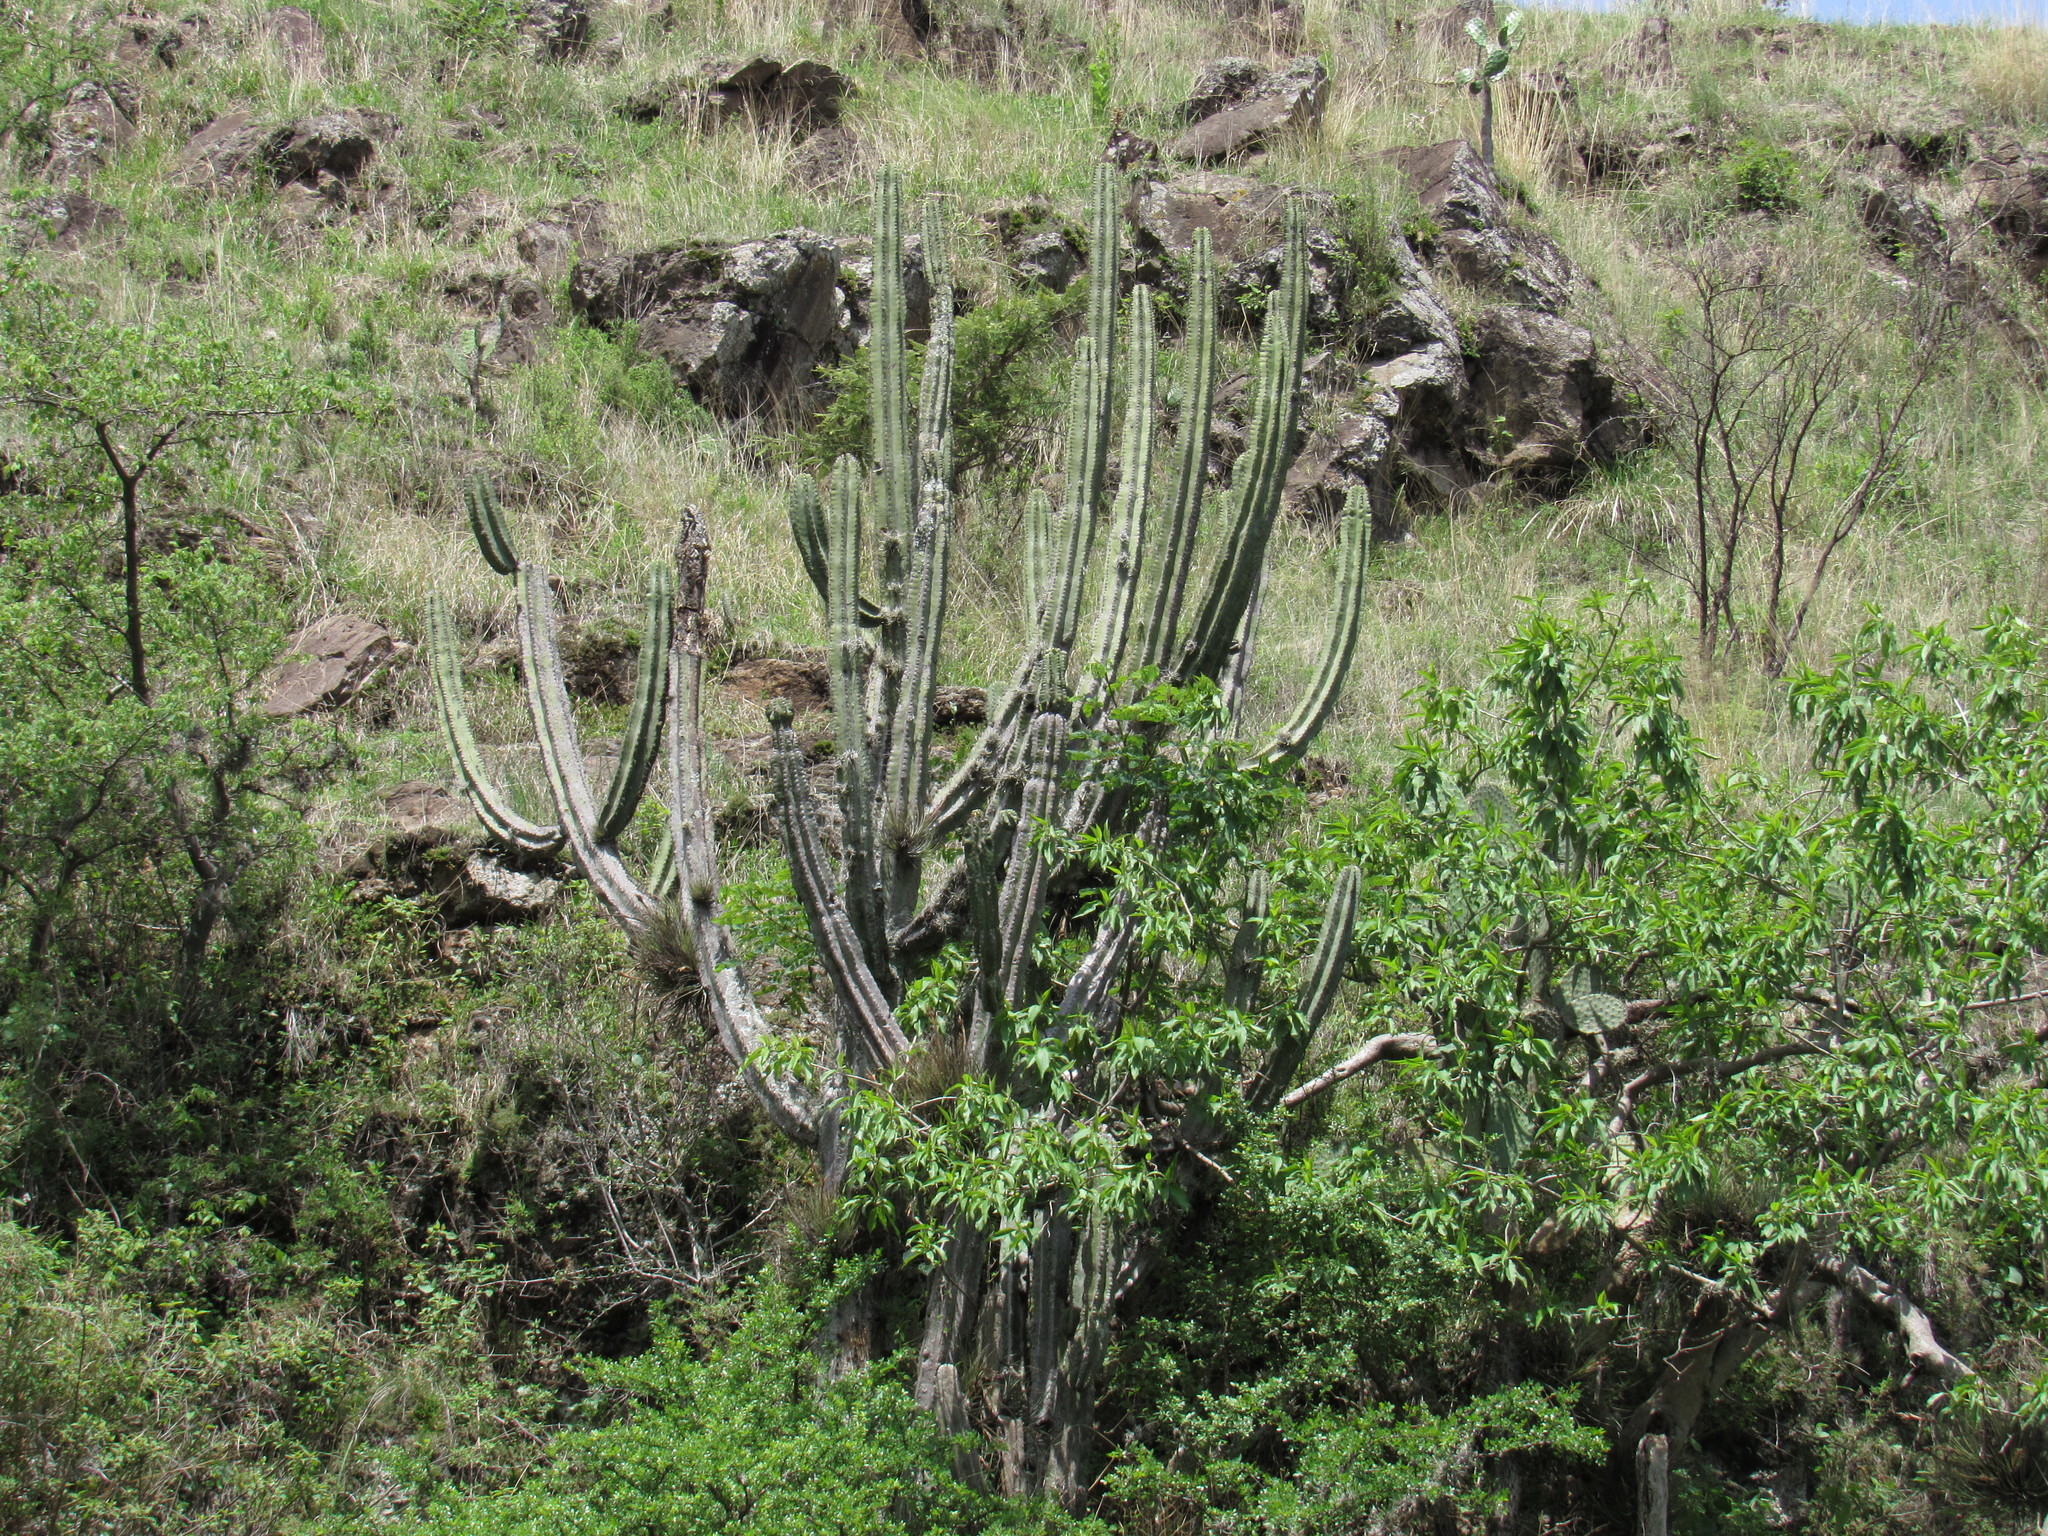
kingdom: Plantae
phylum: Tracheophyta
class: Magnoliopsida
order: Caryophyllales
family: Cactaceae
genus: Stenocereus
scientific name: Stenocereus queretaroensis
